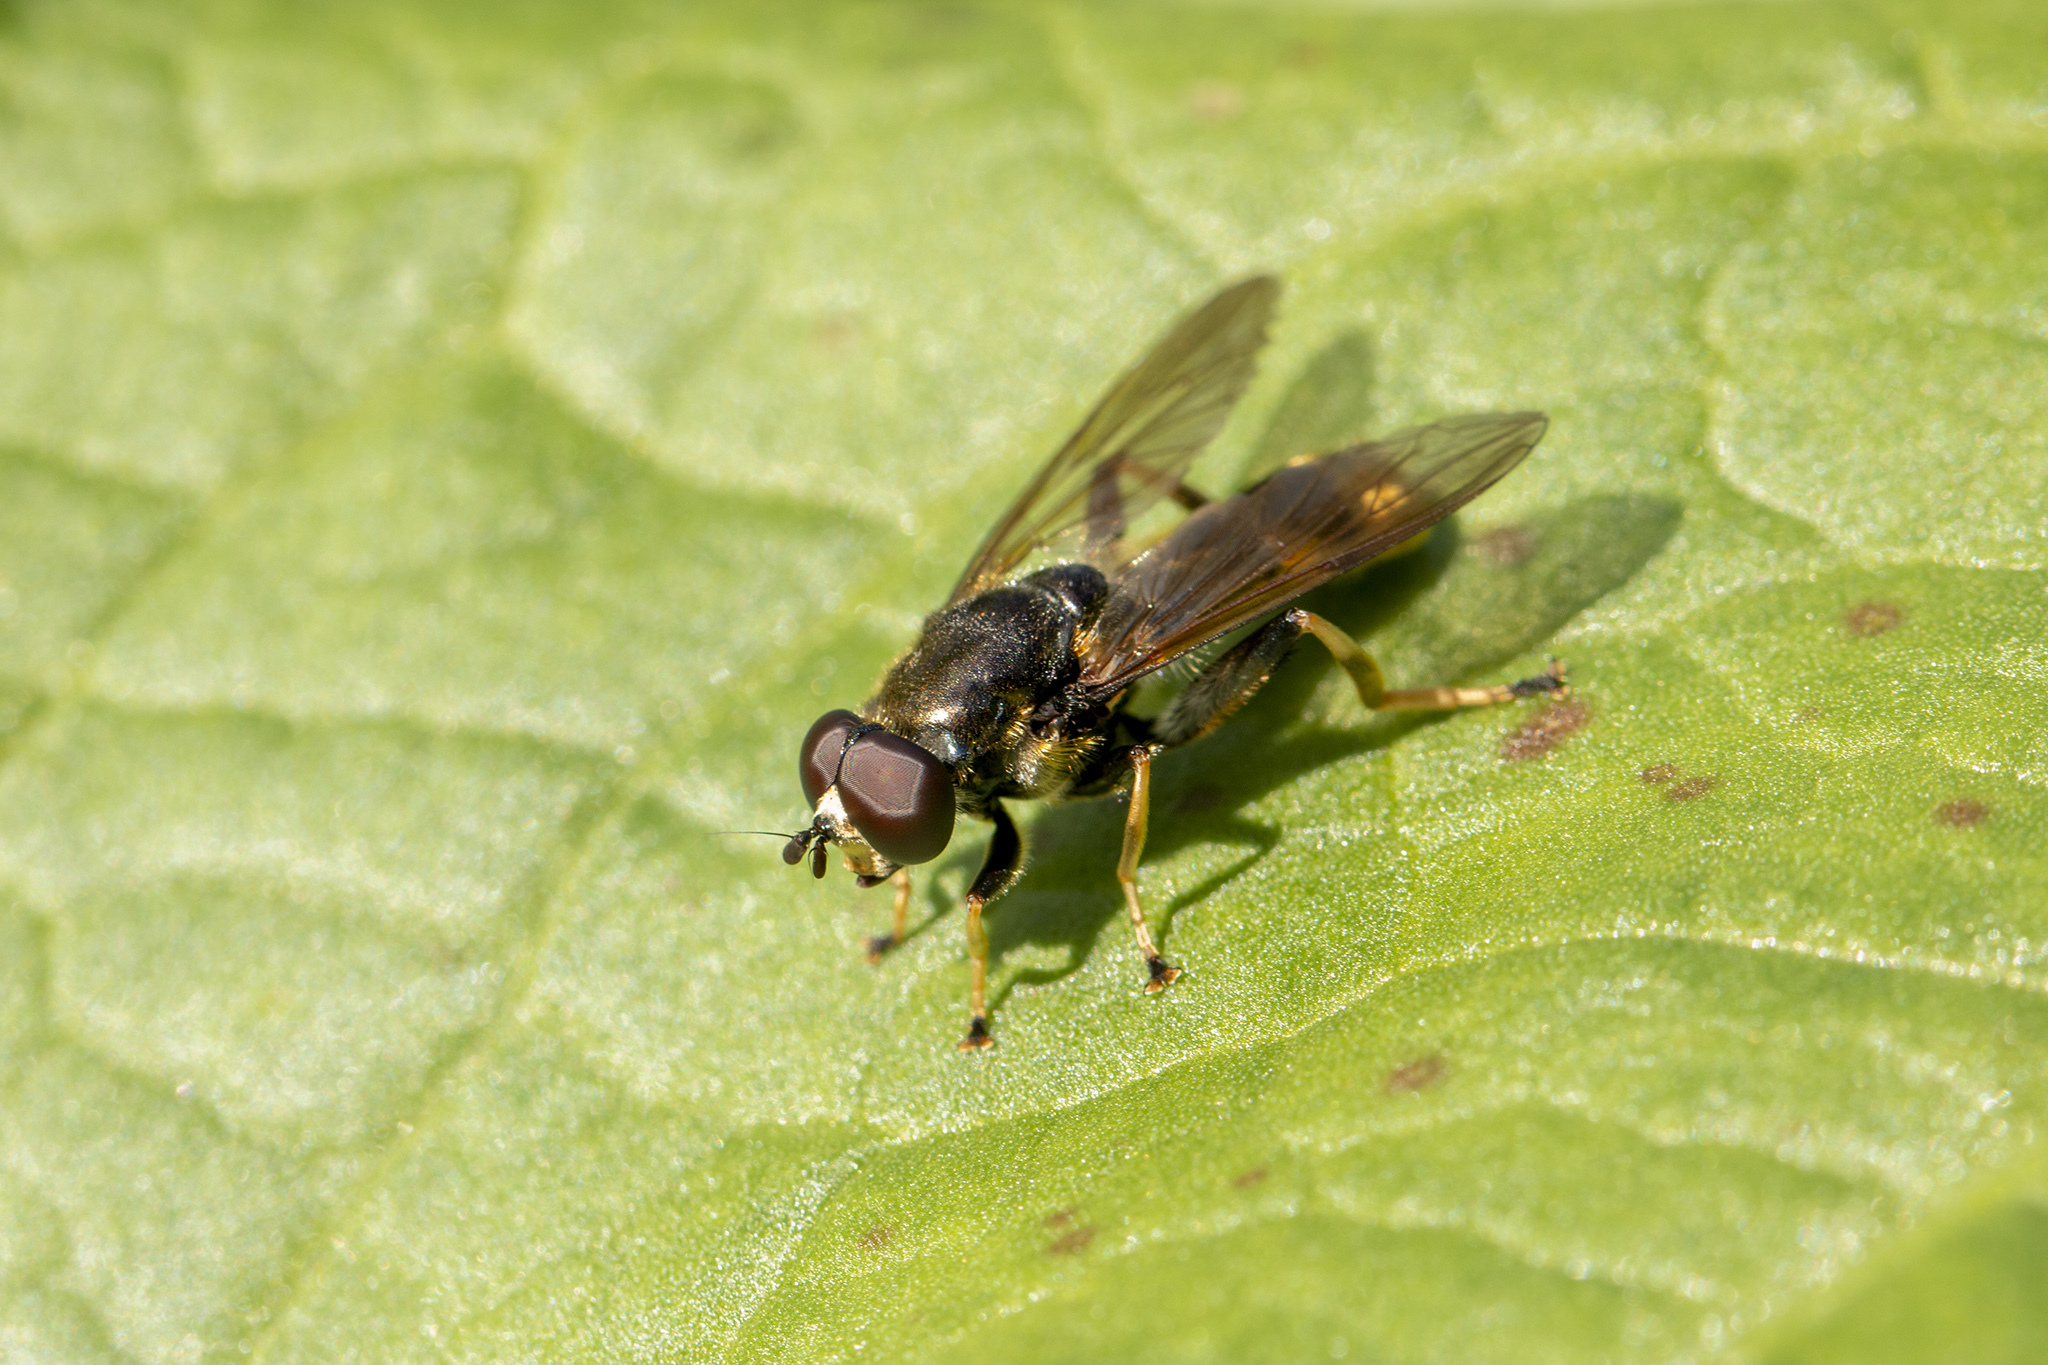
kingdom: Animalia
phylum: Arthropoda
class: Insecta
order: Diptera
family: Syrphidae
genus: Xylota
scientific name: Xylota sylvarum
